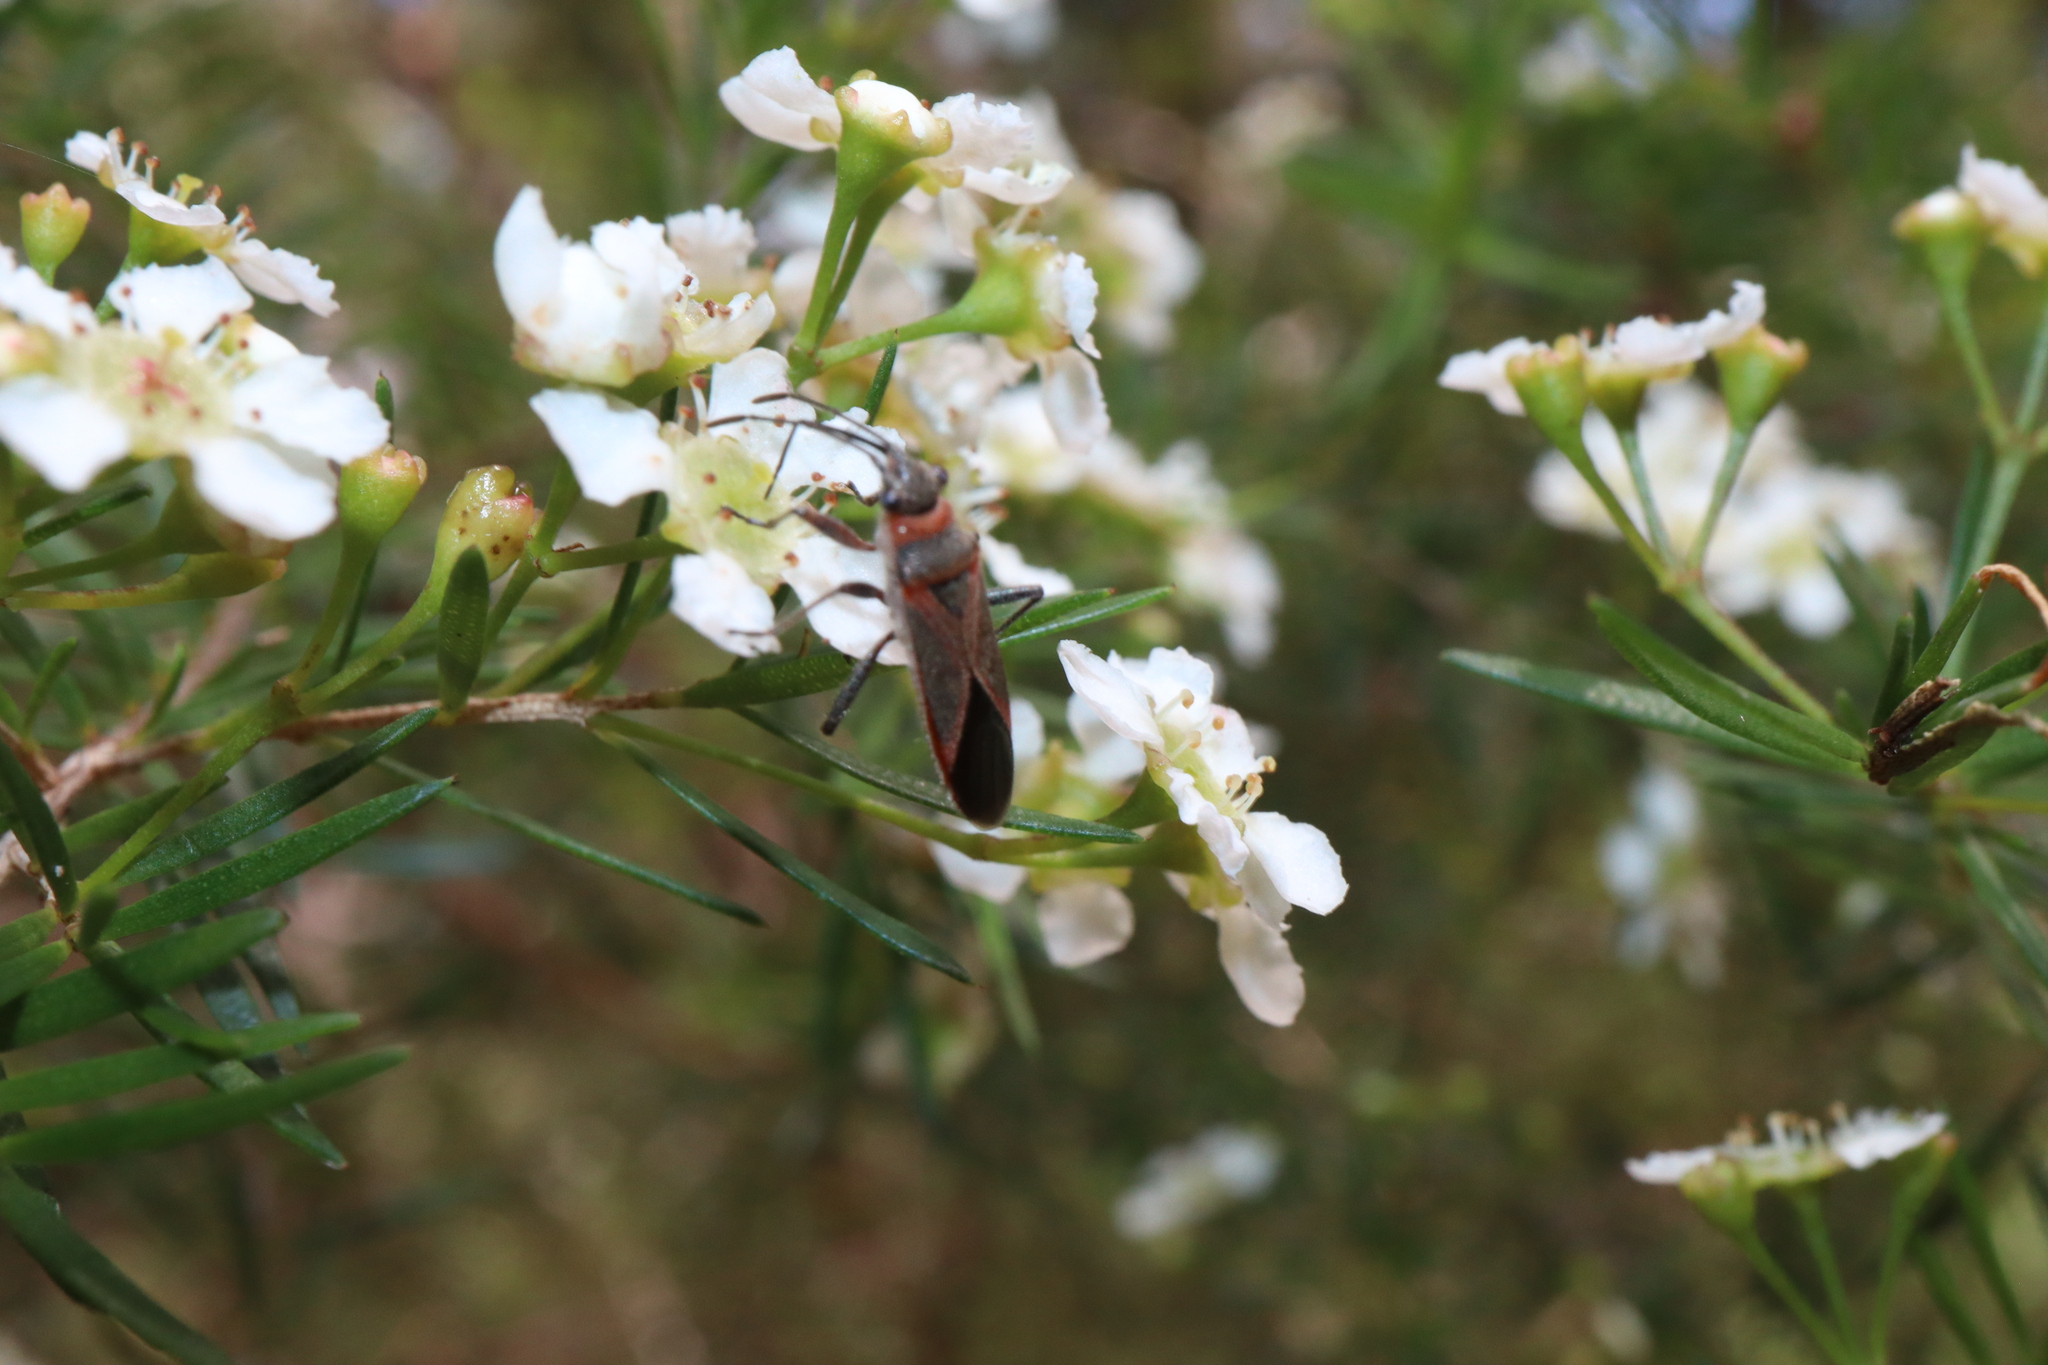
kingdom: Animalia
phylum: Arthropoda
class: Insecta
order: Hemiptera
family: Lygaeidae
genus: Arocatus
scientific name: Arocatus rusticus
